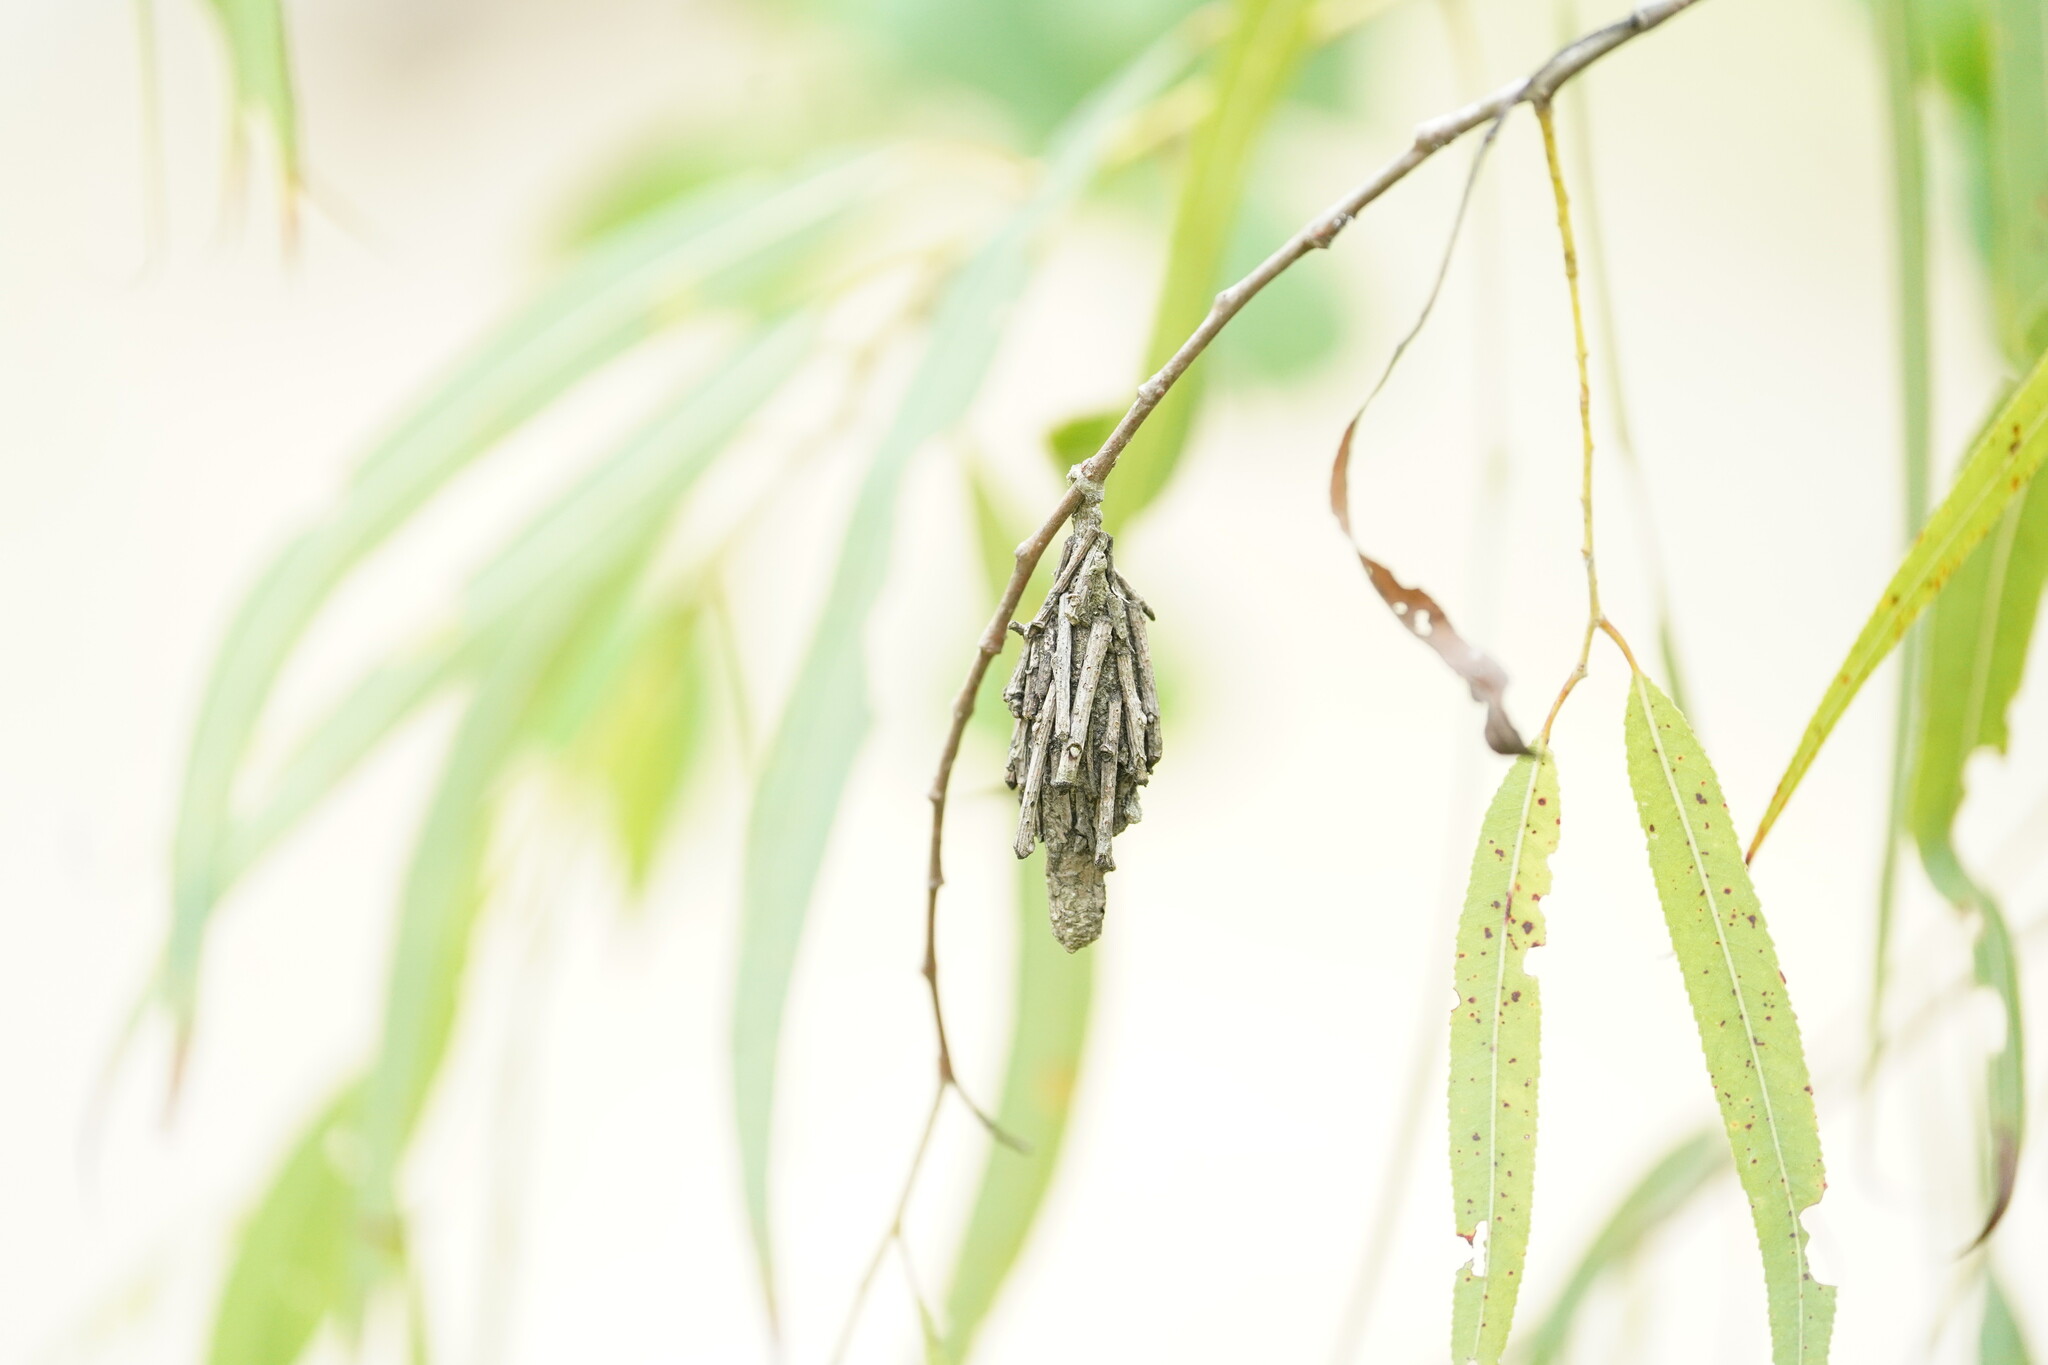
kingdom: Animalia
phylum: Arthropoda
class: Insecta
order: Lepidoptera
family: Psychidae
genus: Oiketicus
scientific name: Oiketicus
